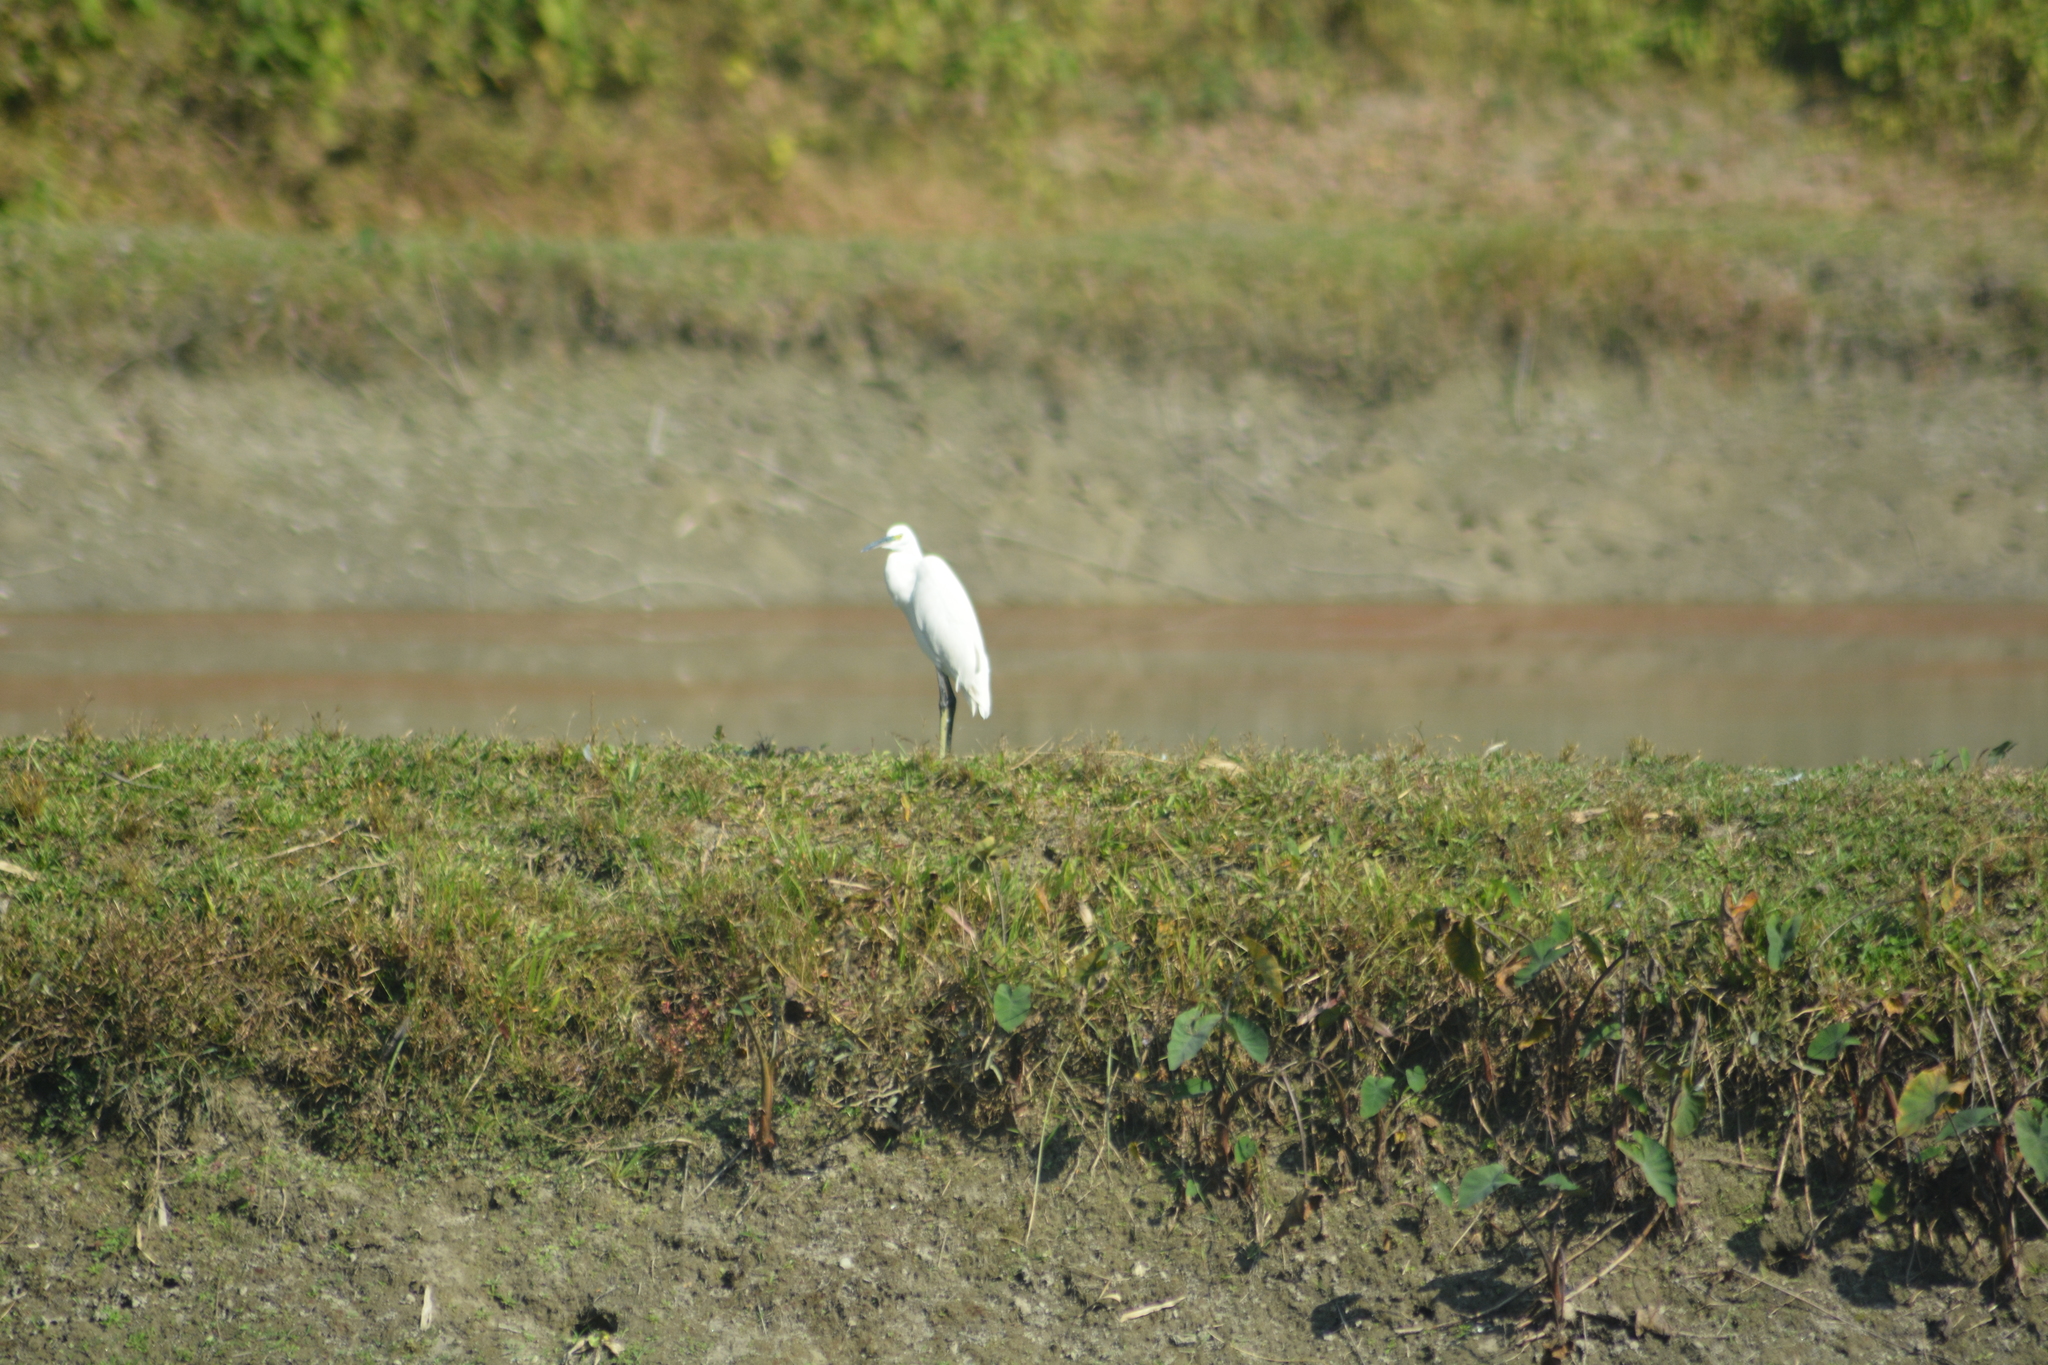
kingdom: Animalia
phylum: Chordata
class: Aves
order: Pelecaniformes
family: Ardeidae
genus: Bubulcus
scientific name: Bubulcus coromandus
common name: Eastern cattle egret
